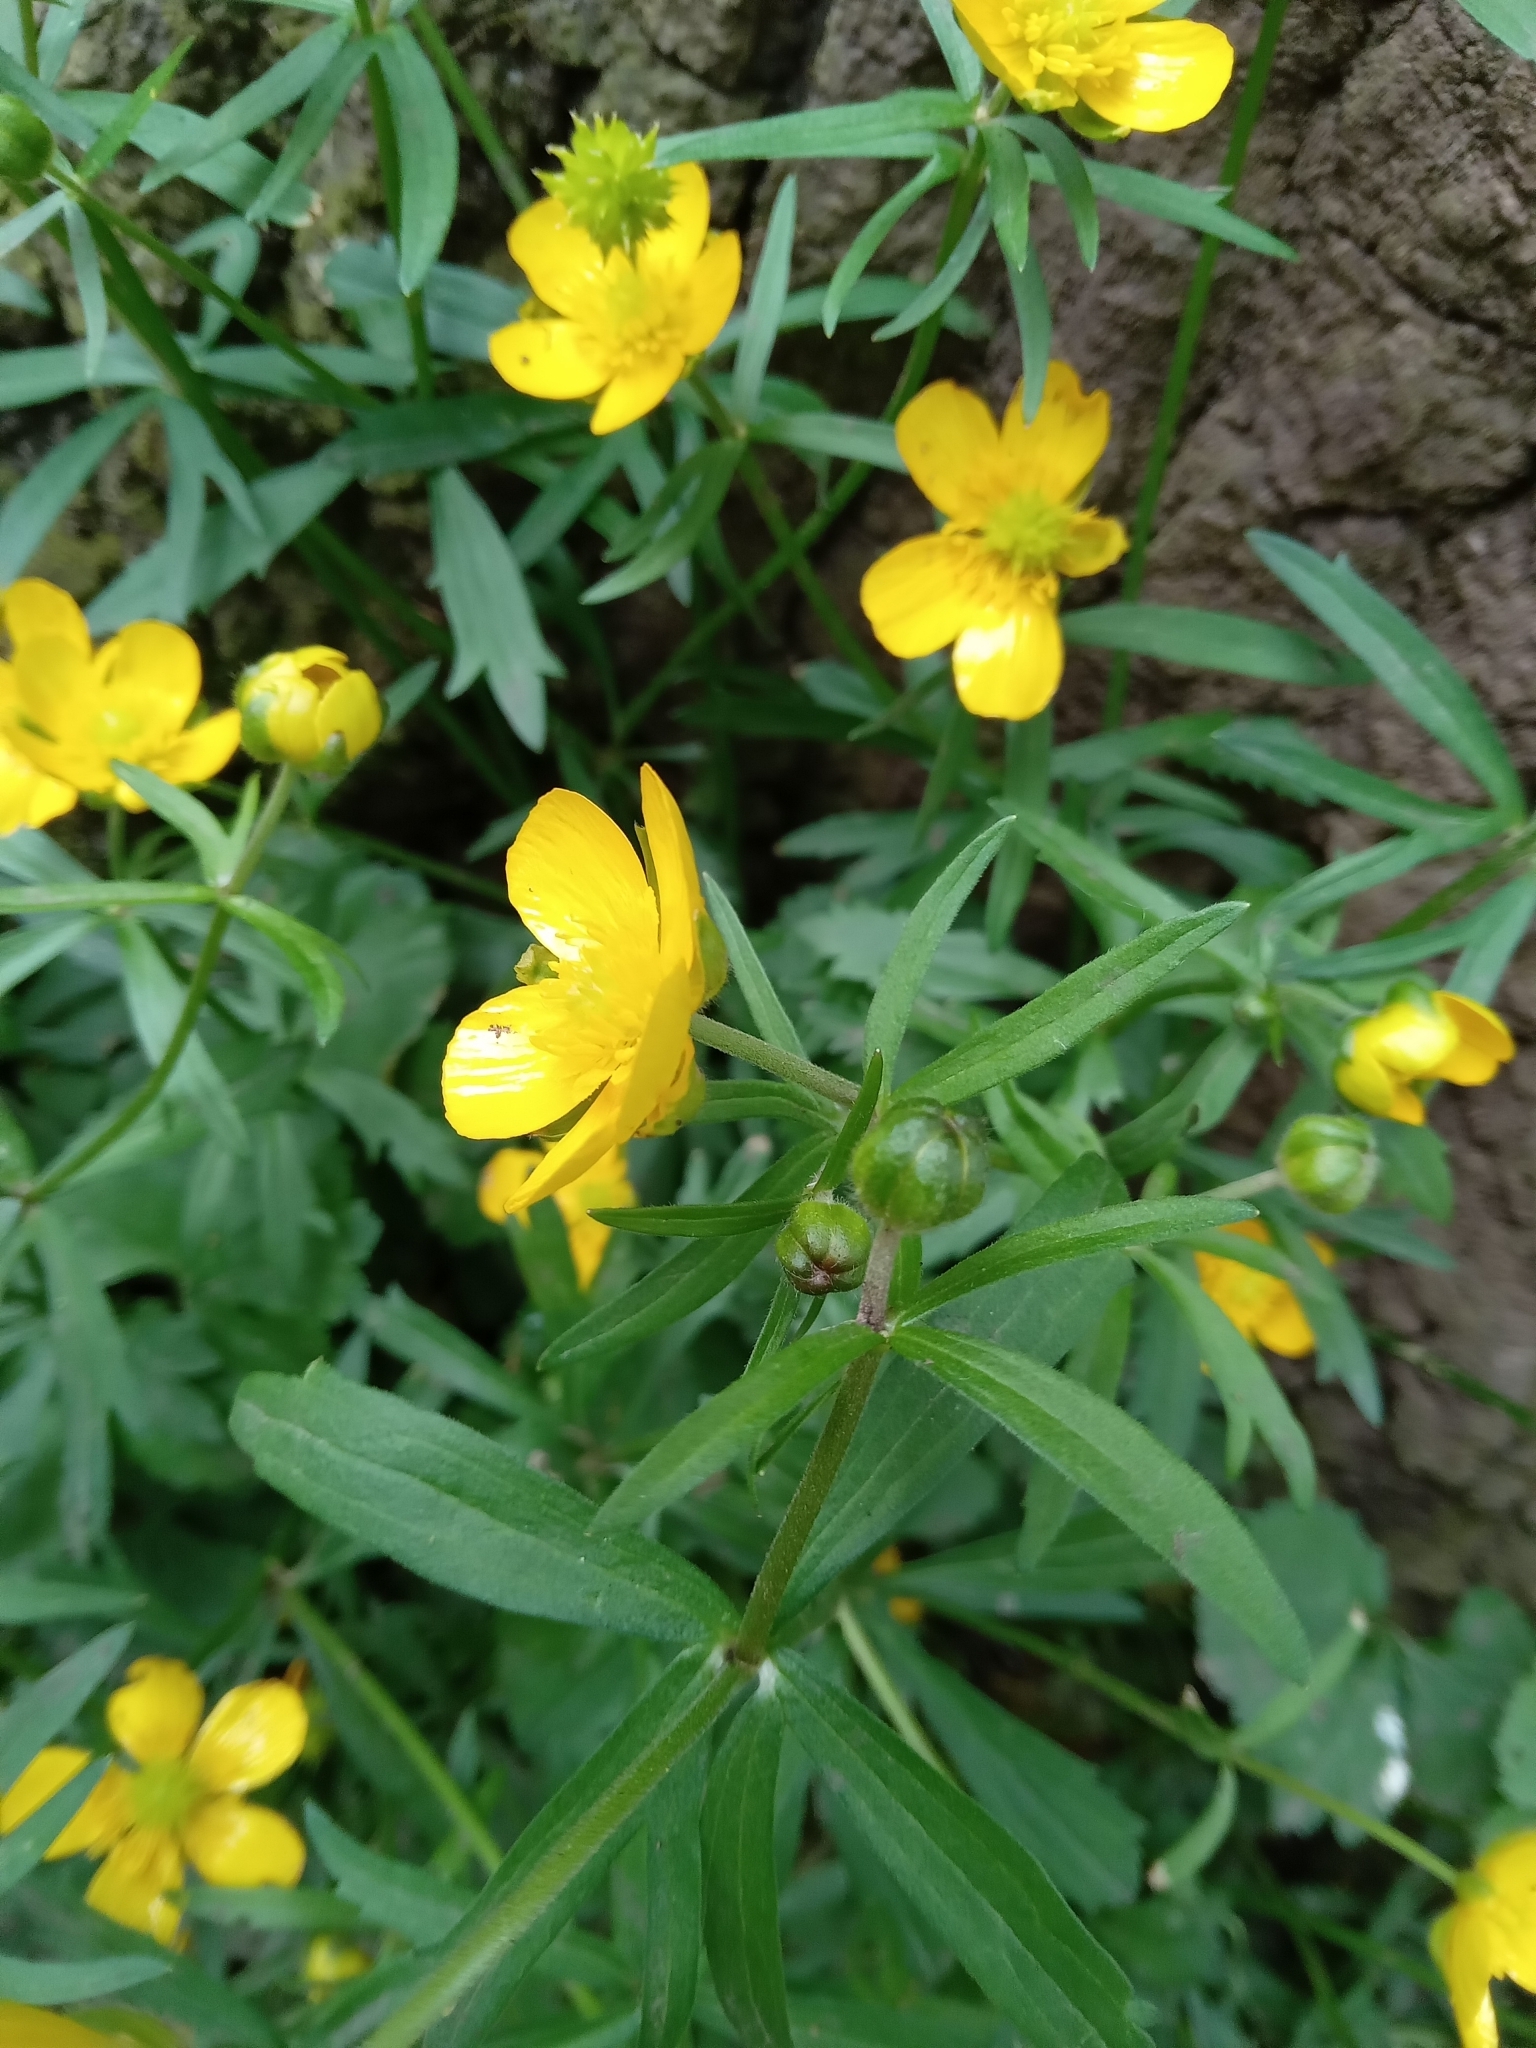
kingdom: Plantae
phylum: Tracheophyta
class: Magnoliopsida
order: Ranunculales
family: Ranunculaceae
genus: Ranunculus
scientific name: Ranunculus auricomus
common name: Goldilocks buttercup
